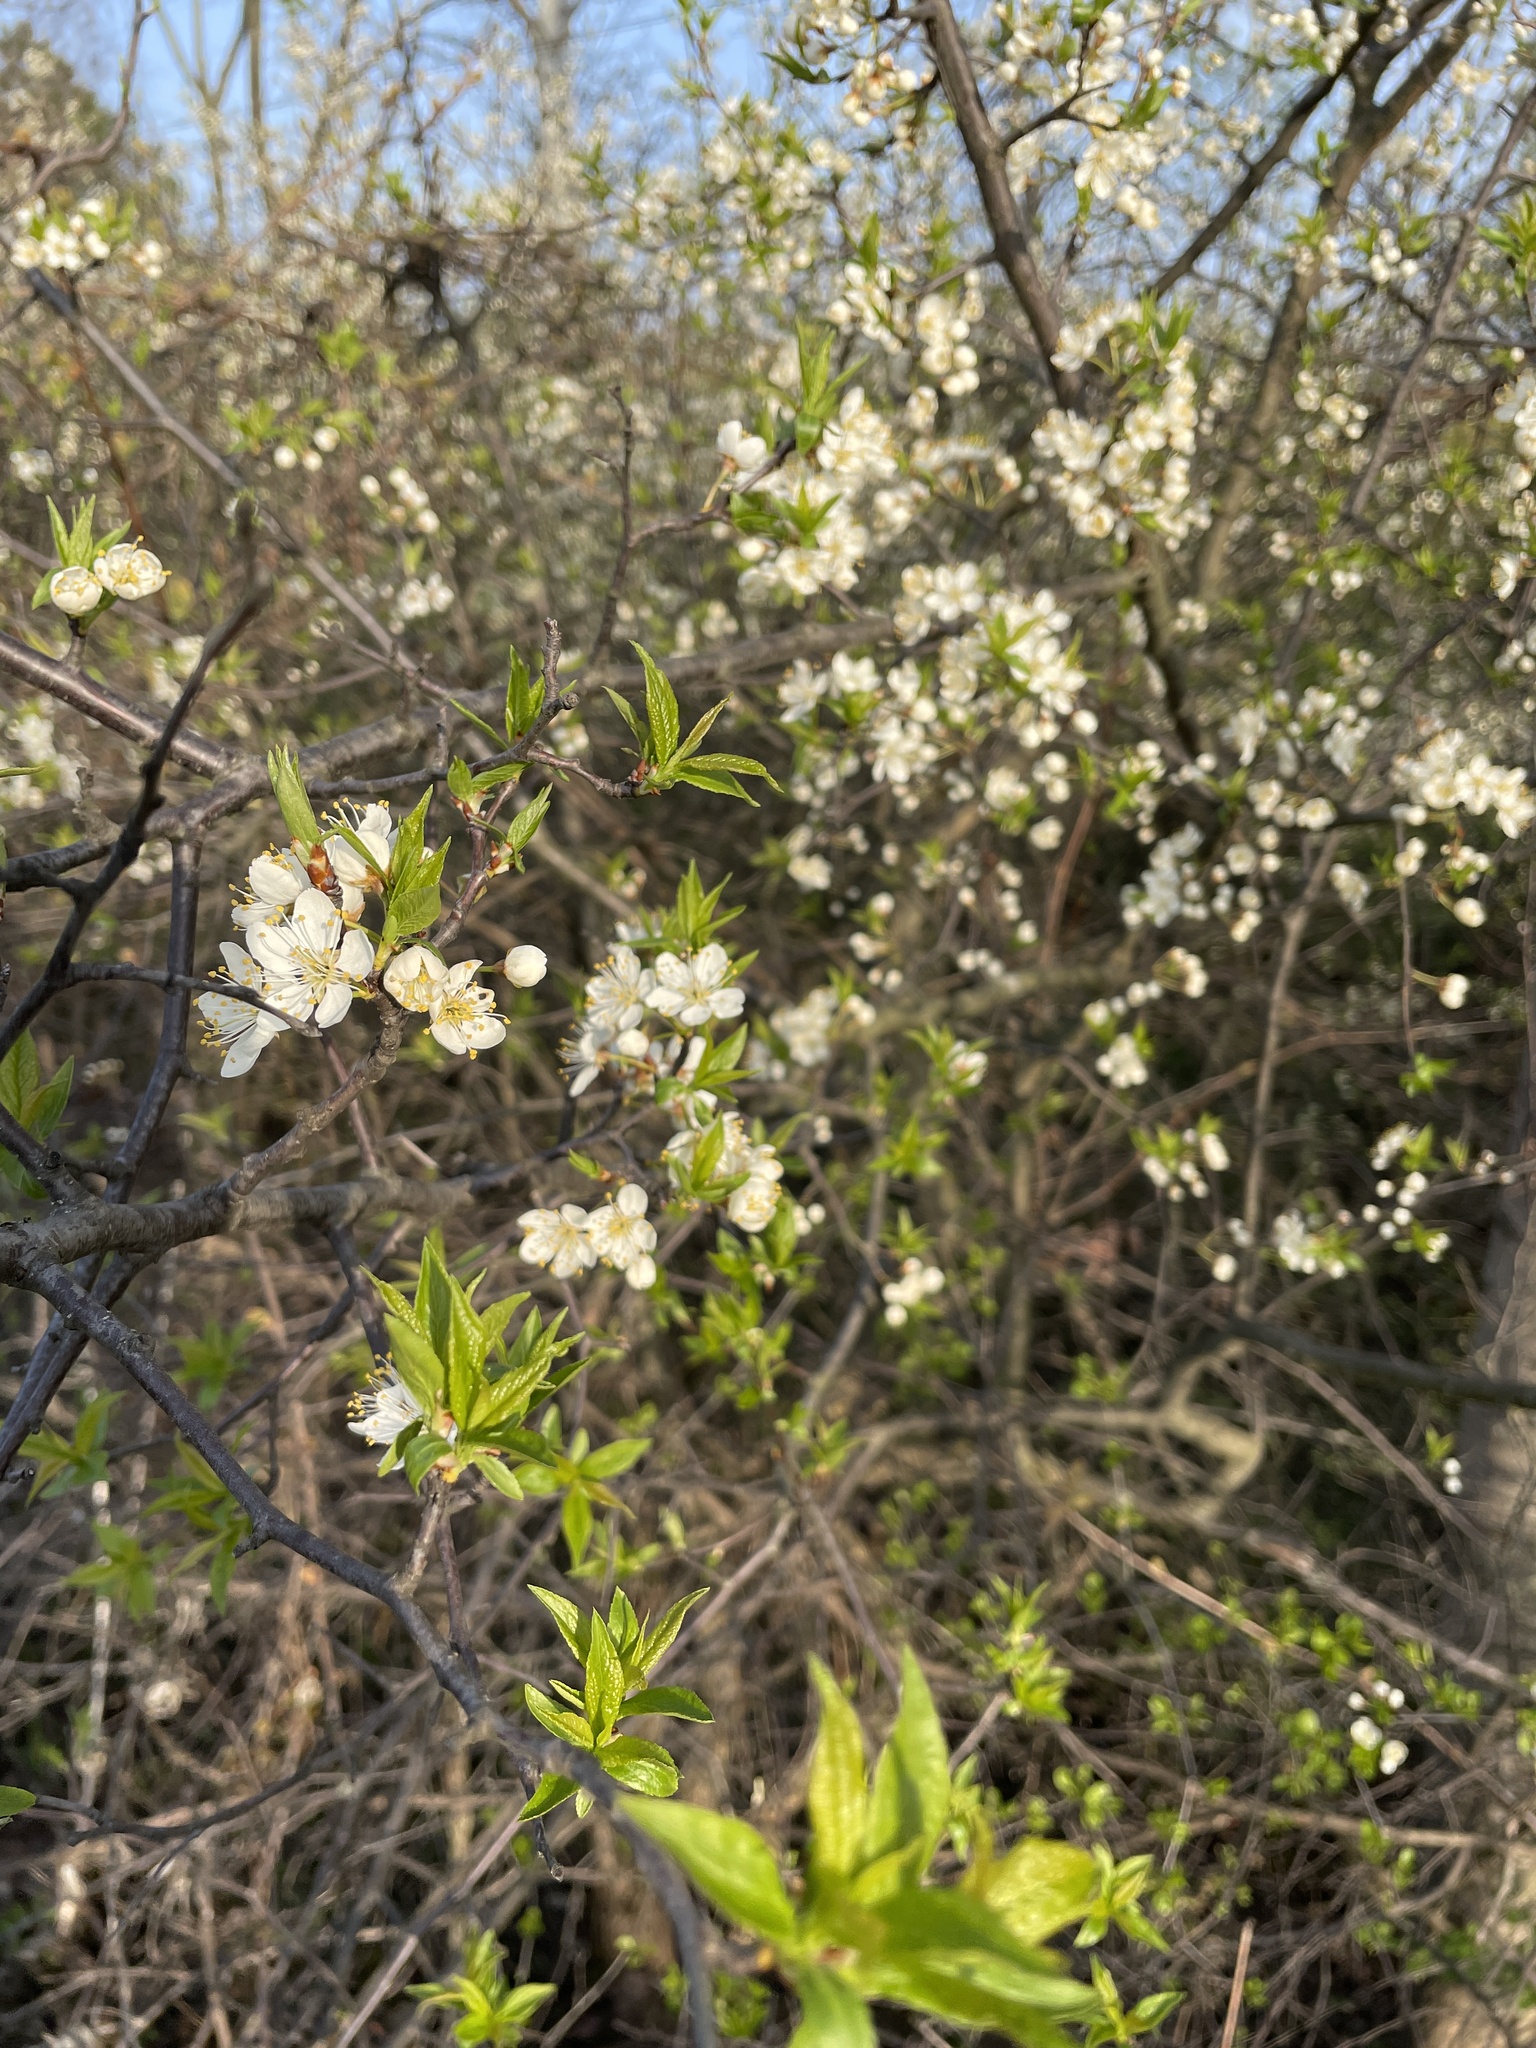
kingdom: Plantae
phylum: Tracheophyta
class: Magnoliopsida
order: Rosales
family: Rosaceae
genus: Prunus
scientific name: Prunus americana
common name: American plum
